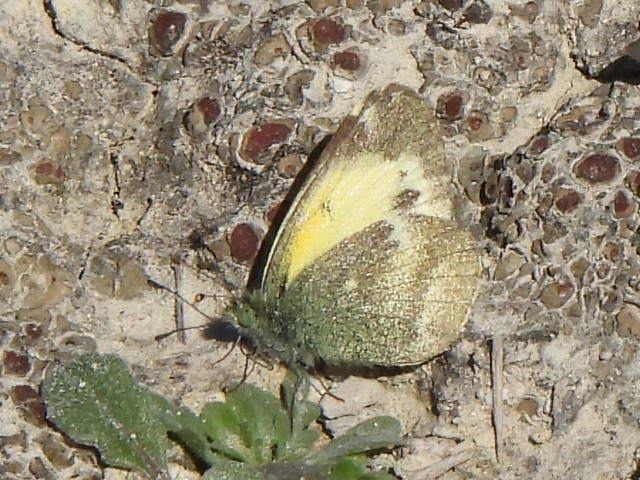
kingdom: Animalia
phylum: Arthropoda
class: Insecta
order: Lepidoptera
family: Pieridae
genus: Nathalis
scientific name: Nathalis iole
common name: Dainty sulphur
